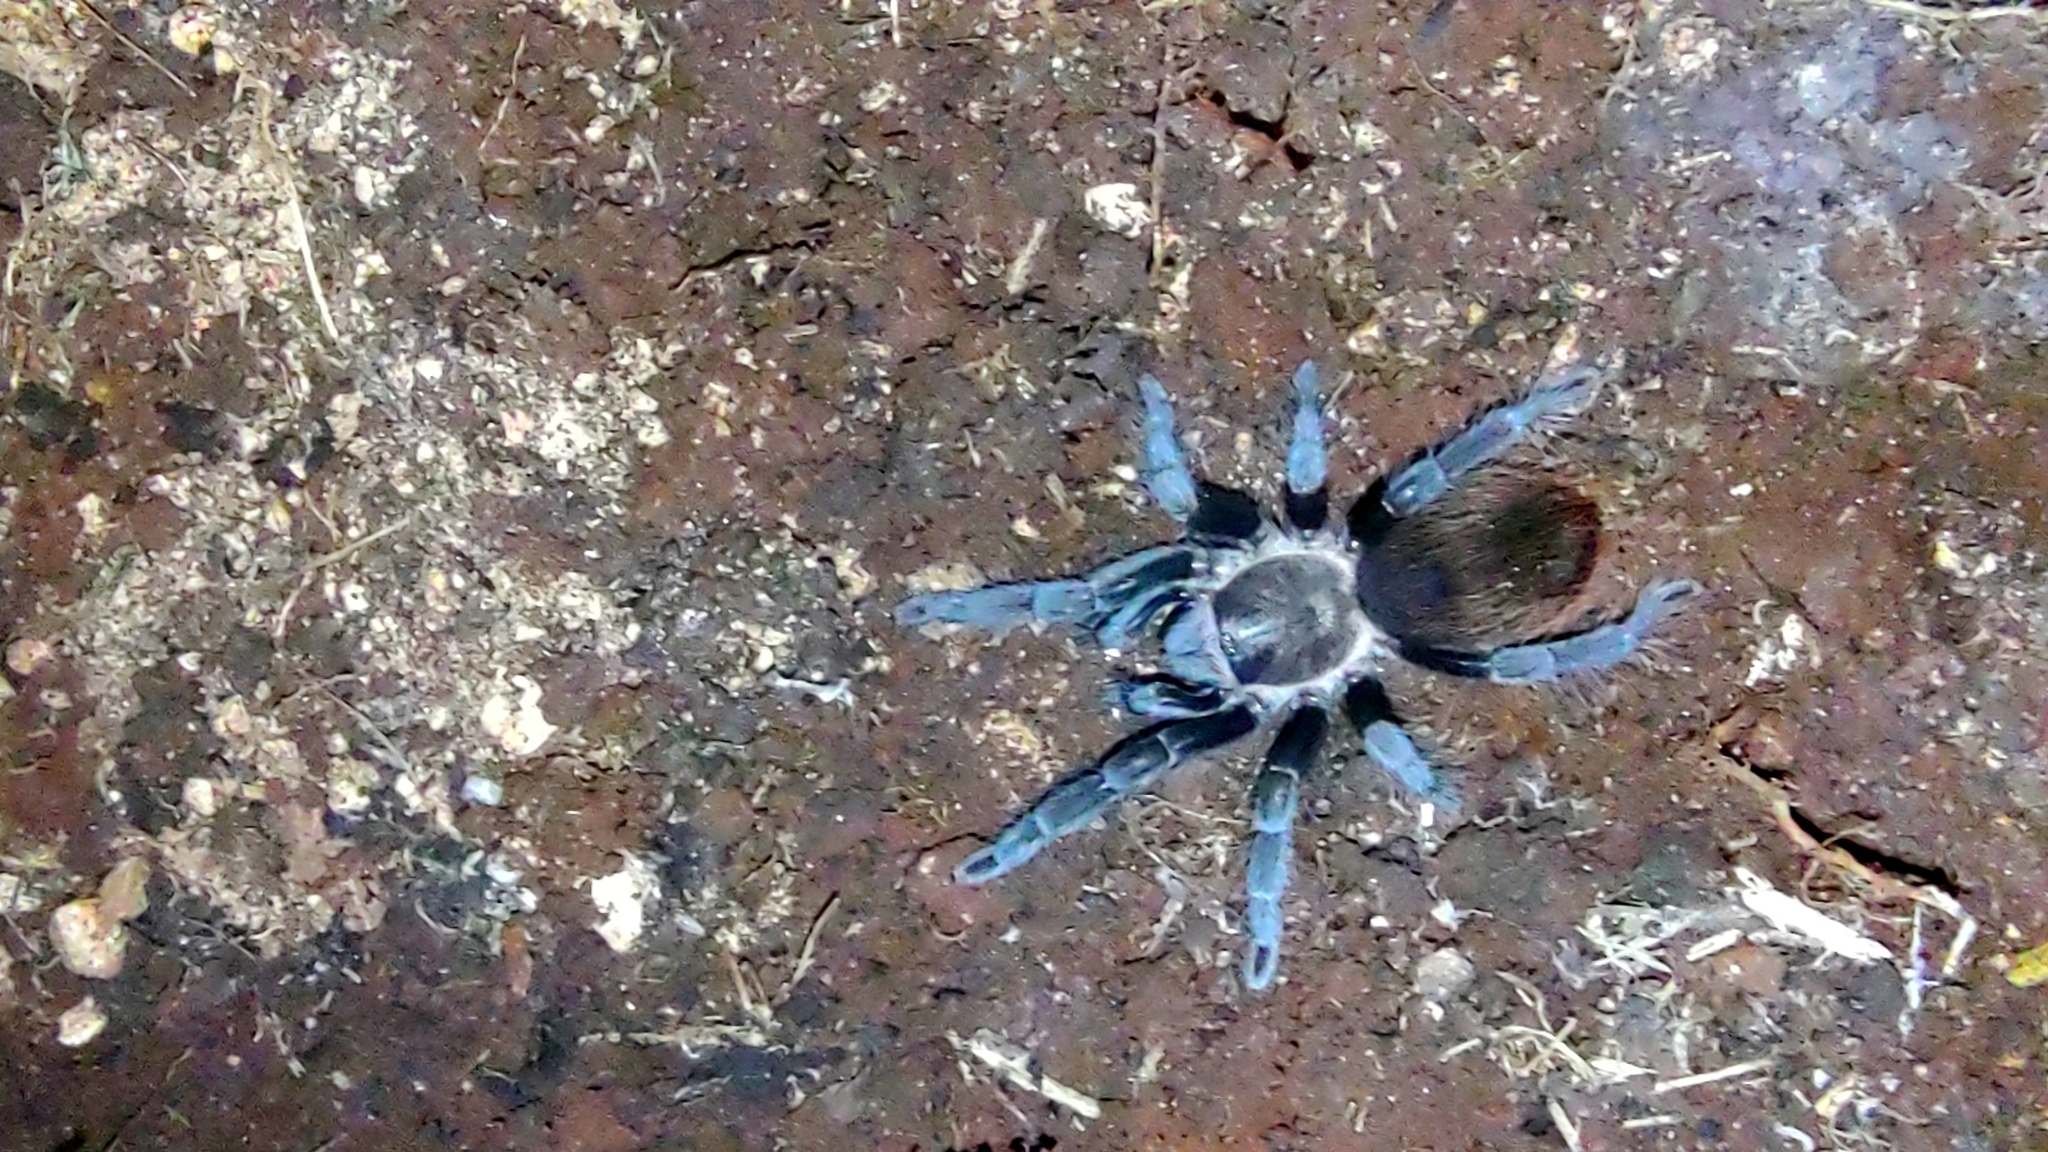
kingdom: Animalia
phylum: Arthropoda
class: Arachnida
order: Araneae
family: Theraphosidae
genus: Tliltocatl
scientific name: Tliltocatl epicureanus
